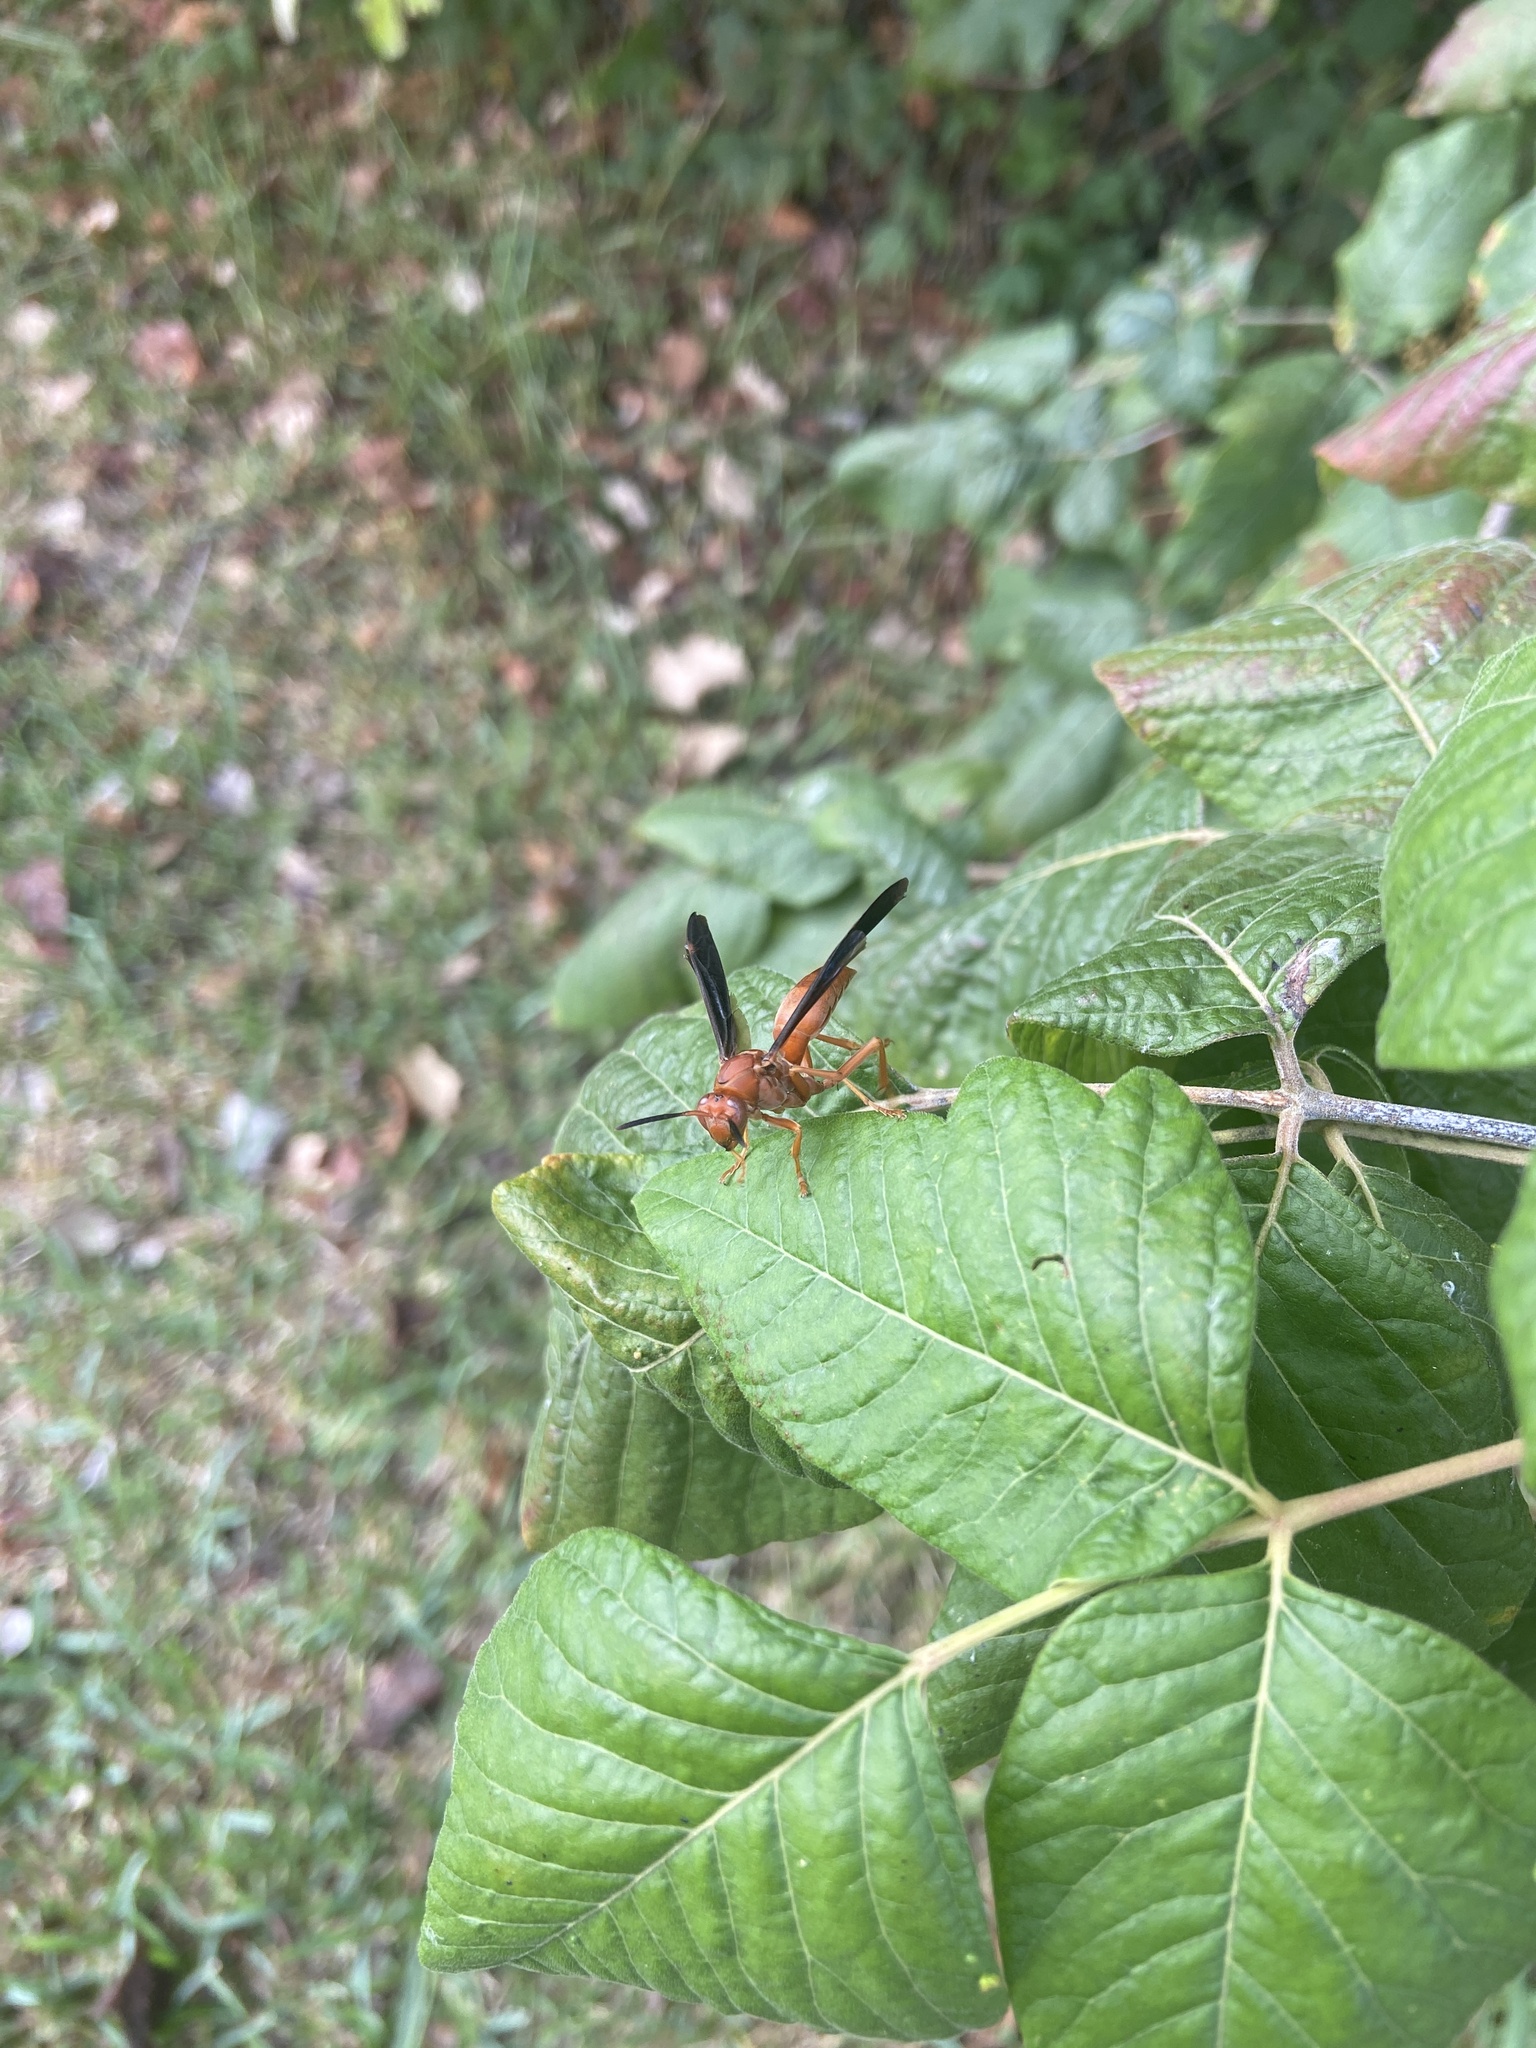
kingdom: Animalia
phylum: Arthropoda
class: Insecta
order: Hymenoptera
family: Vespidae
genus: Fuscopolistes
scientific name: Fuscopolistes
